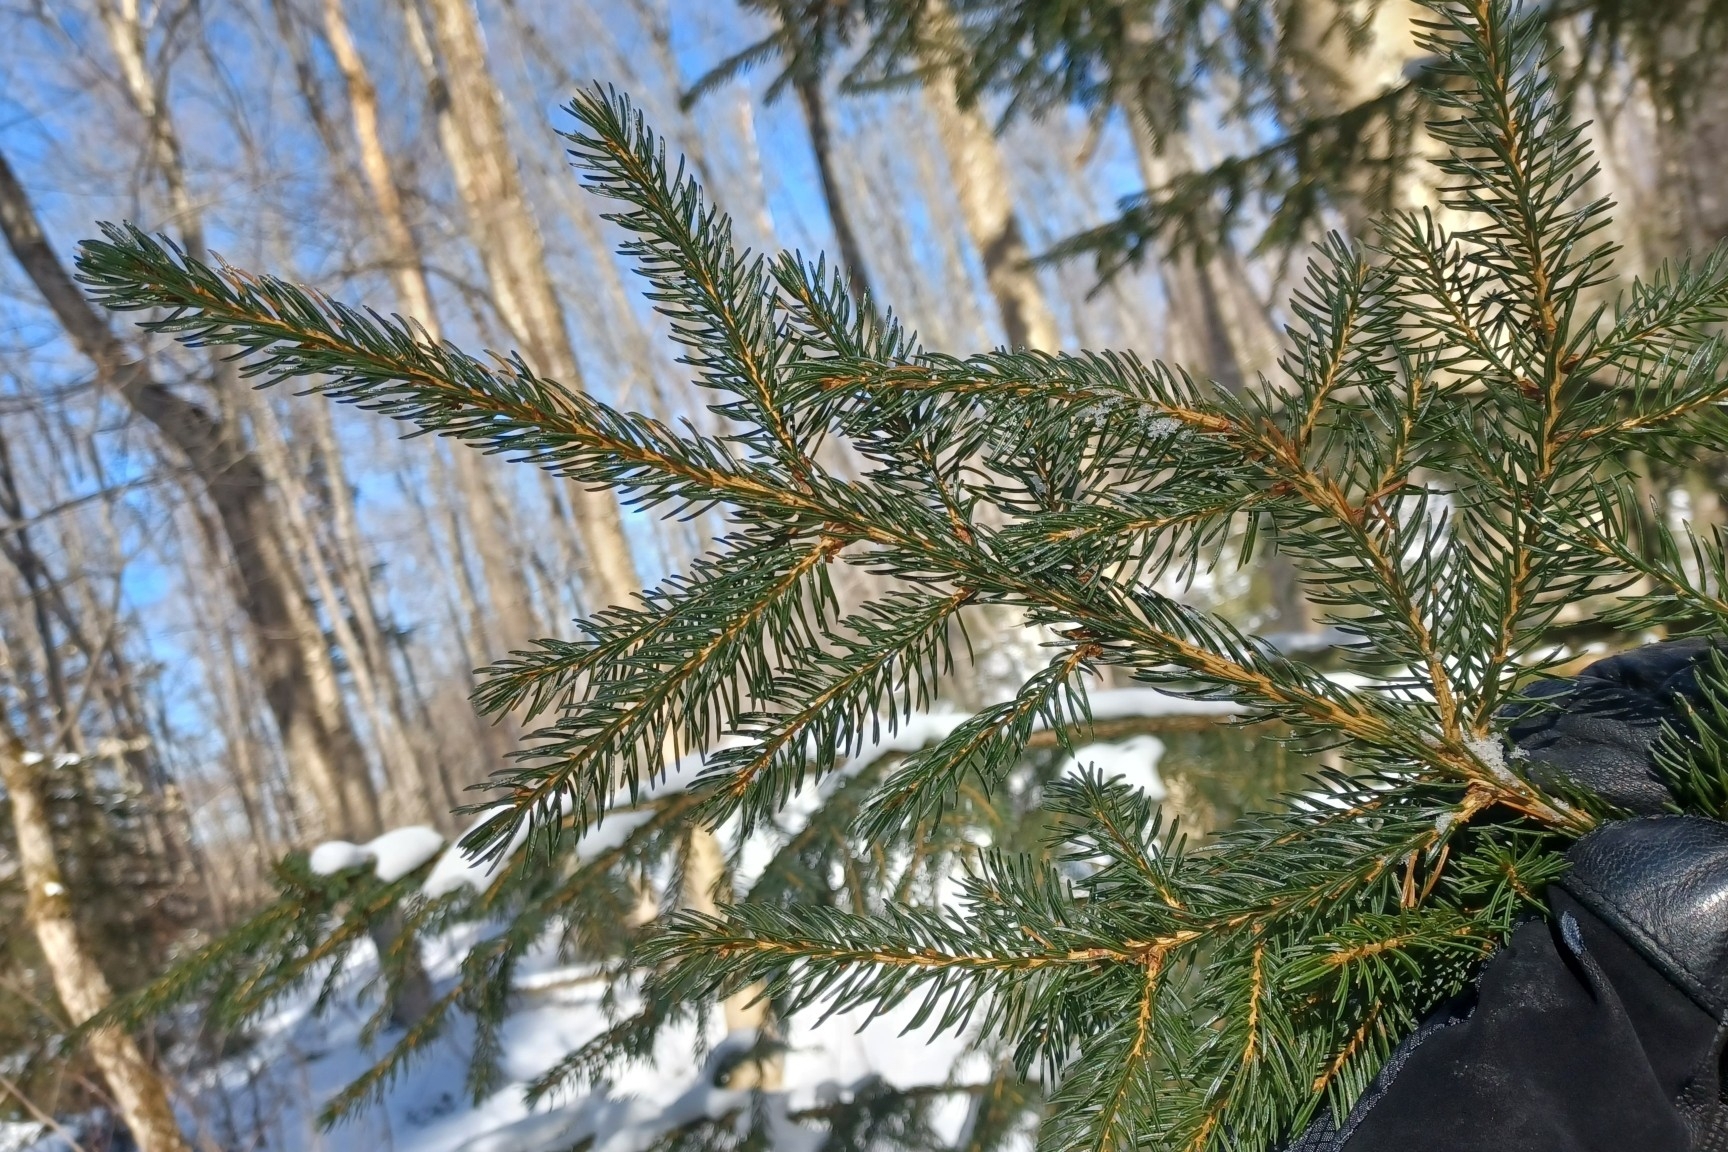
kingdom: Plantae
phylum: Tracheophyta
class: Pinopsida
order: Pinales
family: Pinaceae
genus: Picea
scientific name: Picea rubens
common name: Red spruce
